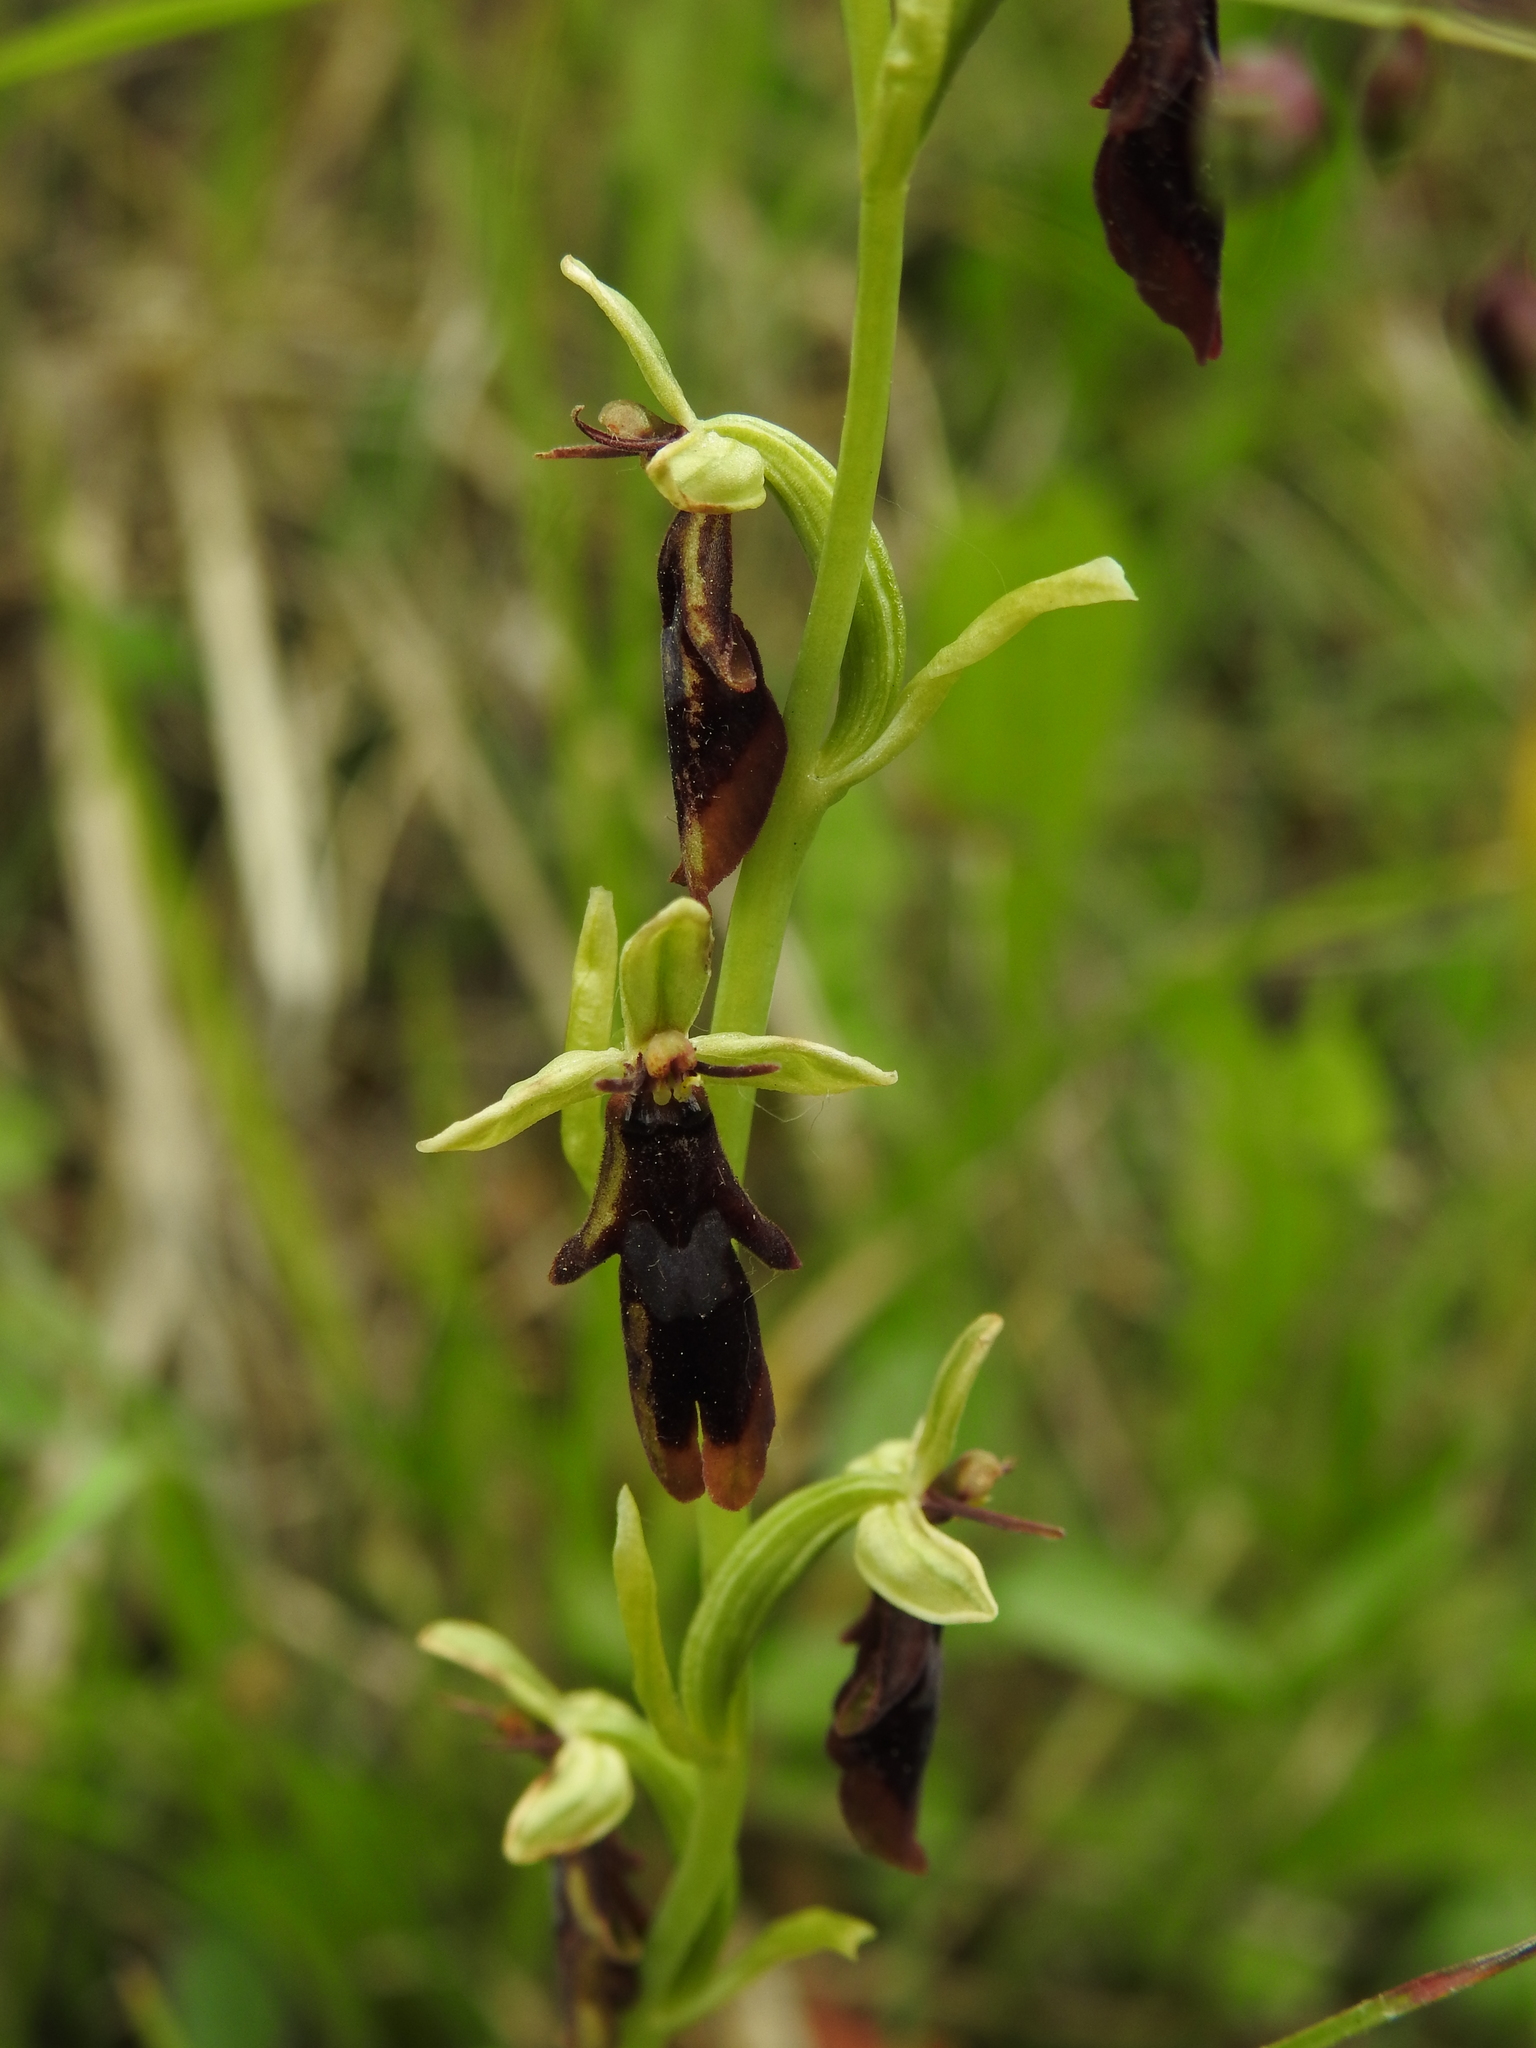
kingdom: Plantae
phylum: Tracheophyta
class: Liliopsida
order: Asparagales
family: Orchidaceae
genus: Ophrys
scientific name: Ophrys insectifera
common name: Fly orchid
